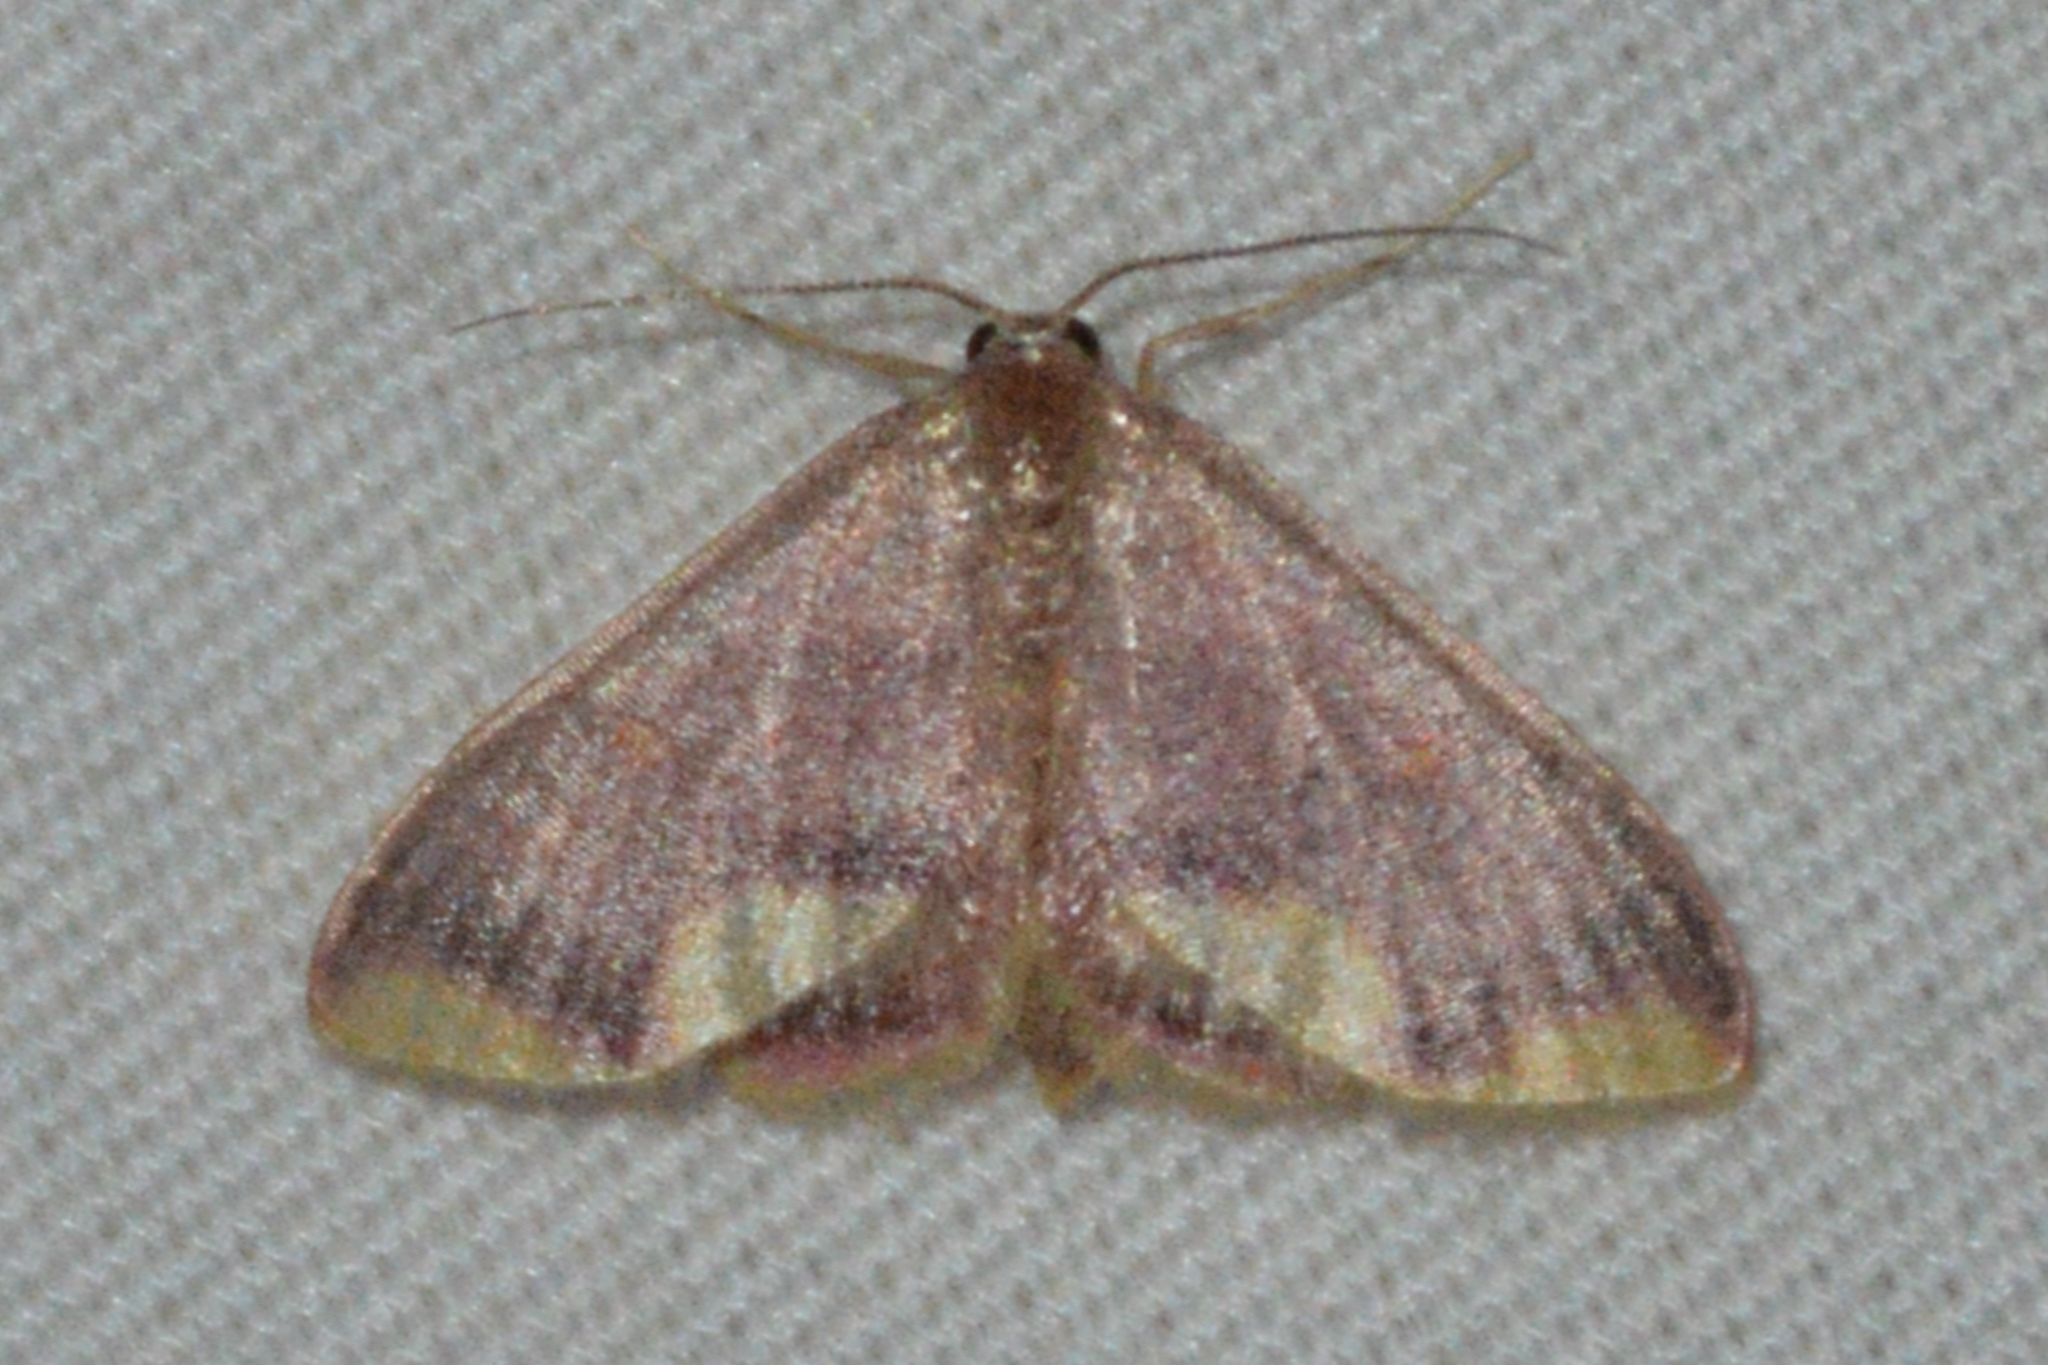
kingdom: Animalia
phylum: Arthropoda
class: Insecta
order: Lepidoptera
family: Geometridae
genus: Lophosis
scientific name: Lophosis labeculata
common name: Stained lophosis moth
